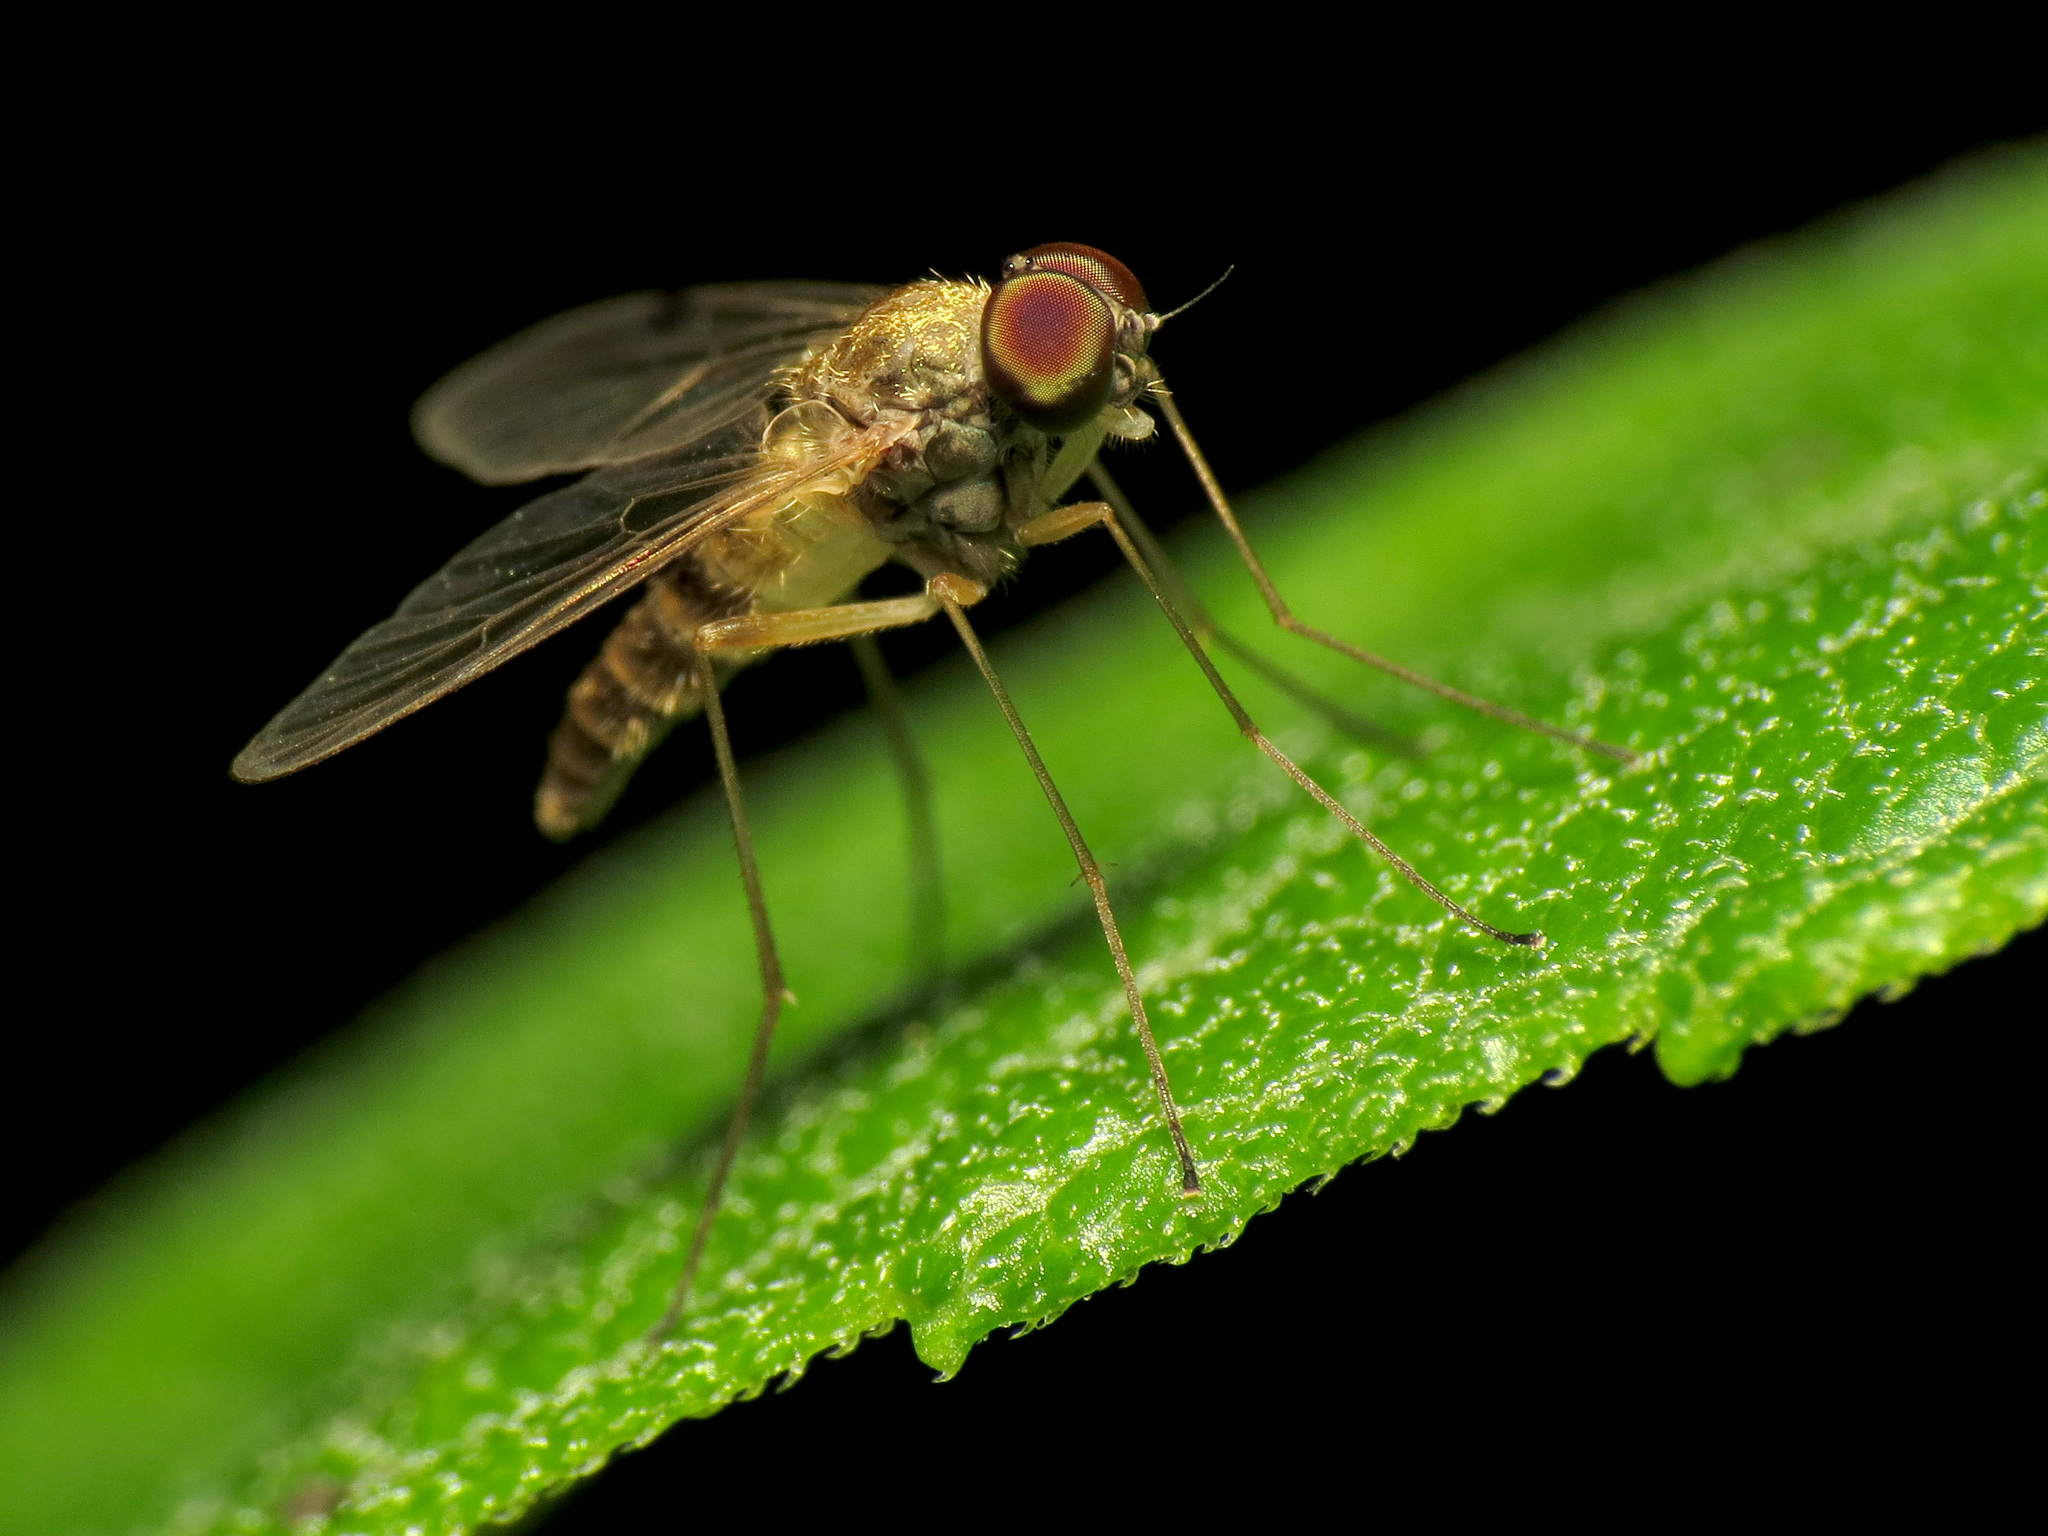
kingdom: Animalia
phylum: Arthropoda
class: Insecta
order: Diptera
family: Rhagionidae
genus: Chrysopilus
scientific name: Chrysopilus modestus
